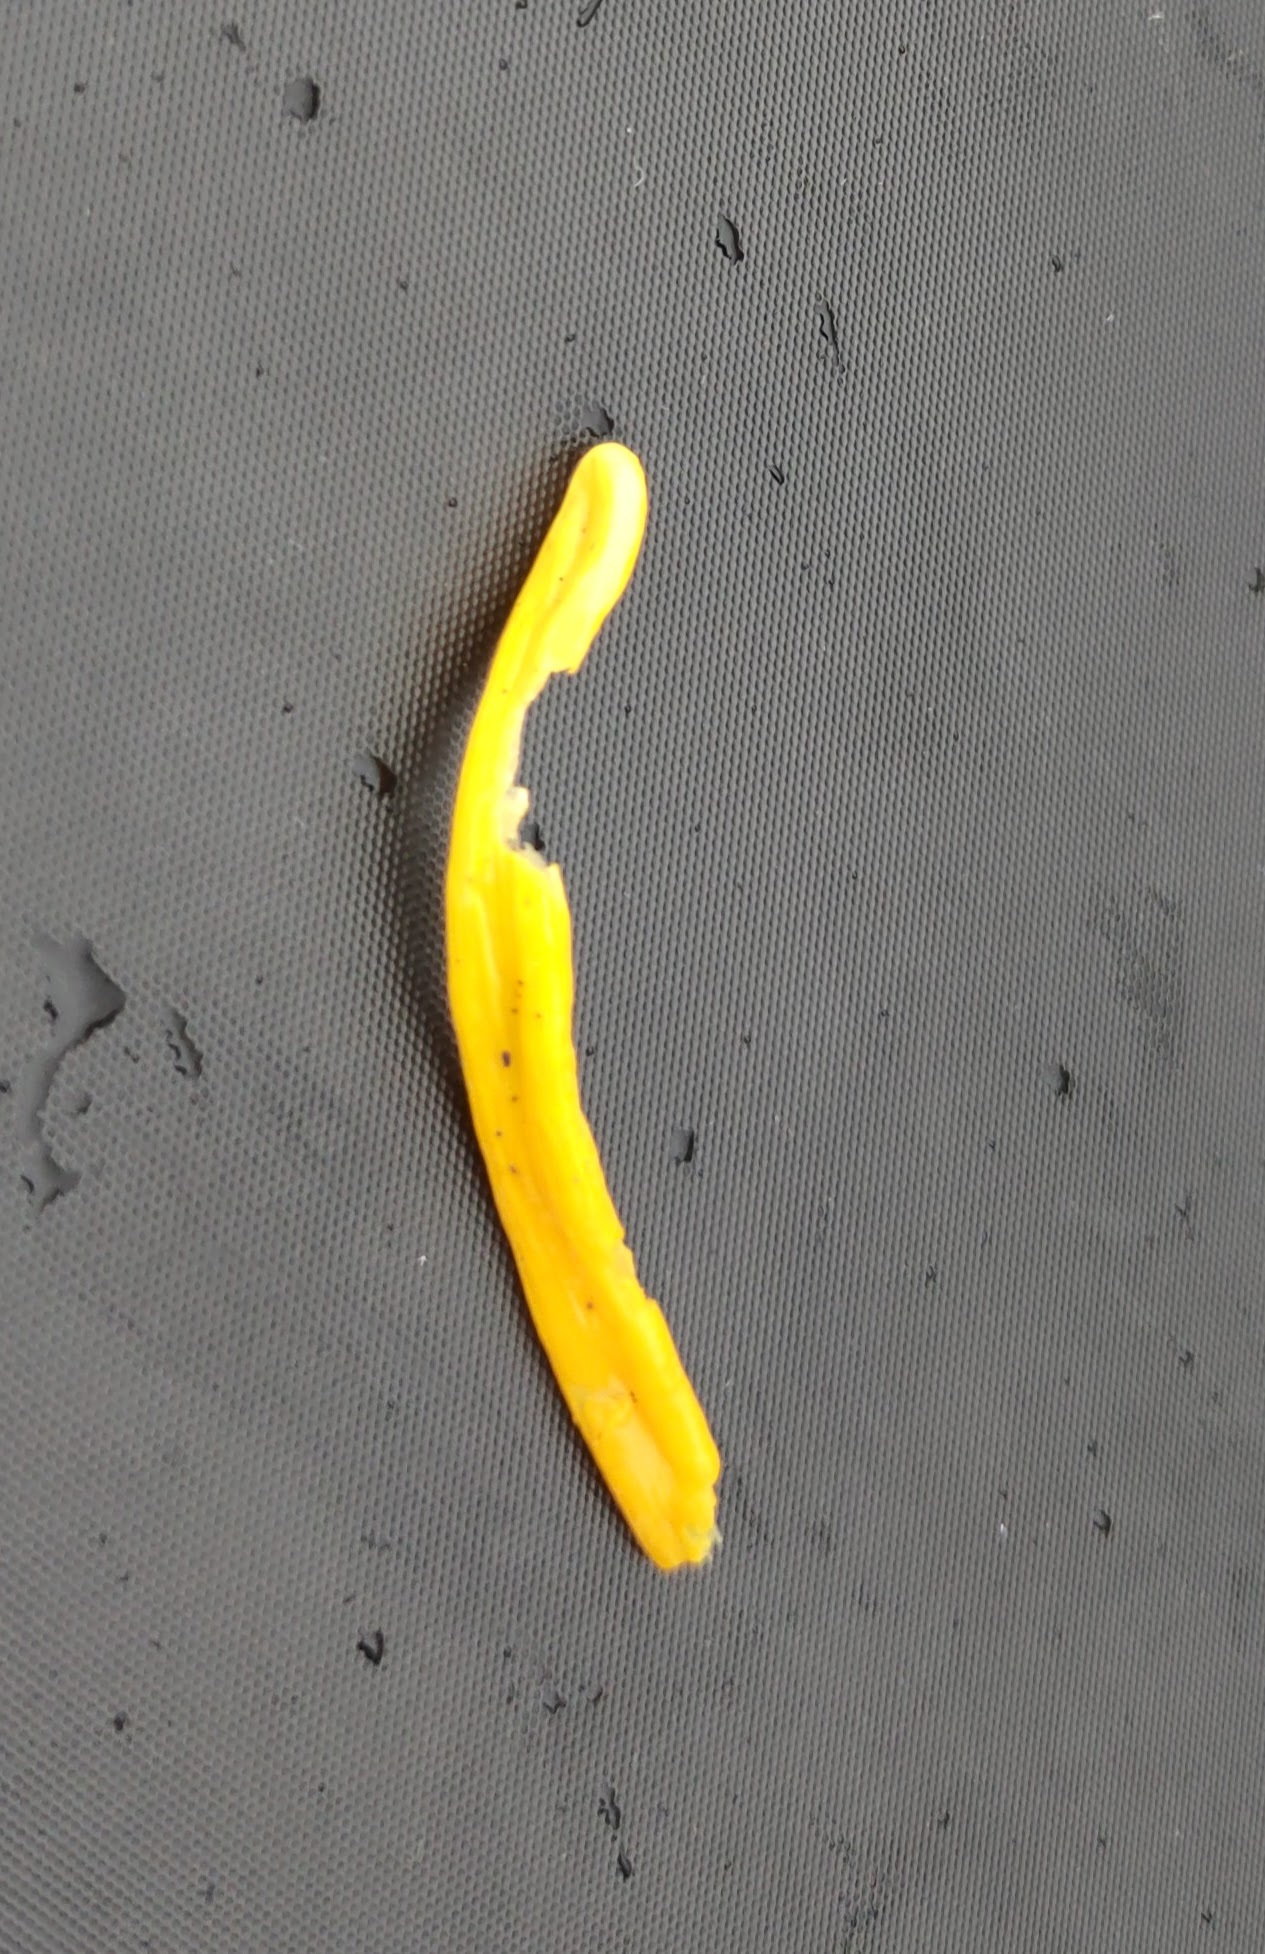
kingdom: Fungi
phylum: Basidiomycota
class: Agaricomycetes
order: Agaricales
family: Clavariaceae
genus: Clavulinopsis
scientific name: Clavulinopsis helvola
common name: Yellow club
